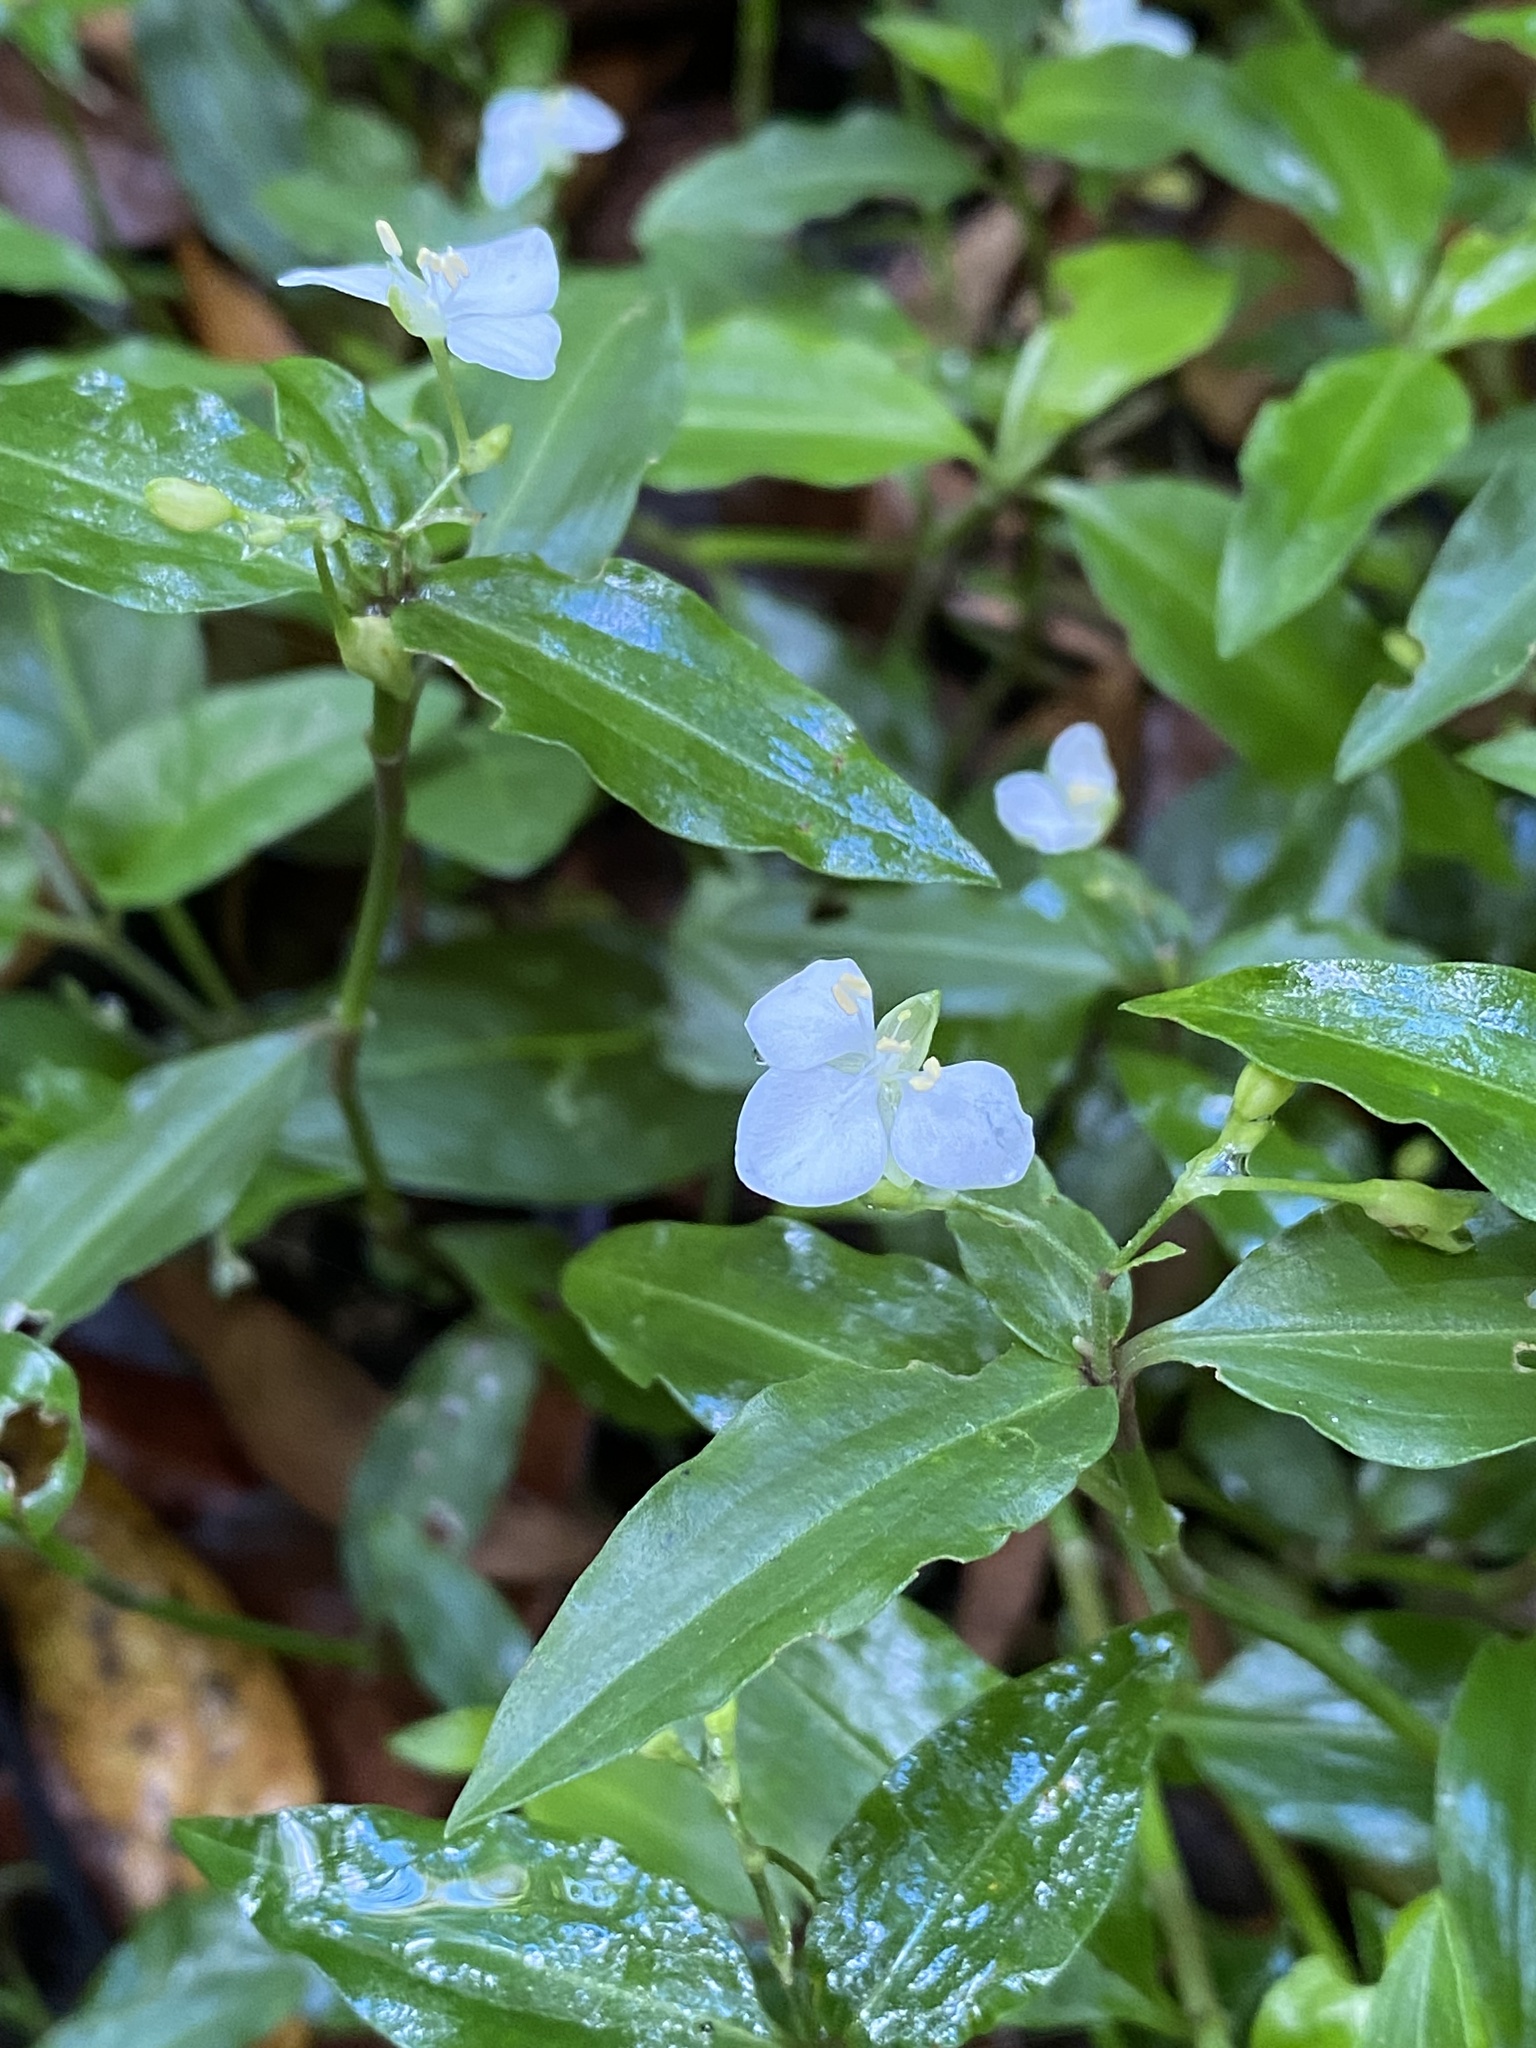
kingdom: Plantae
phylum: Tracheophyta
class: Liliopsida
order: Commelinales
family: Commelinaceae
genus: Aneilema
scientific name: Aneilema biflorum
